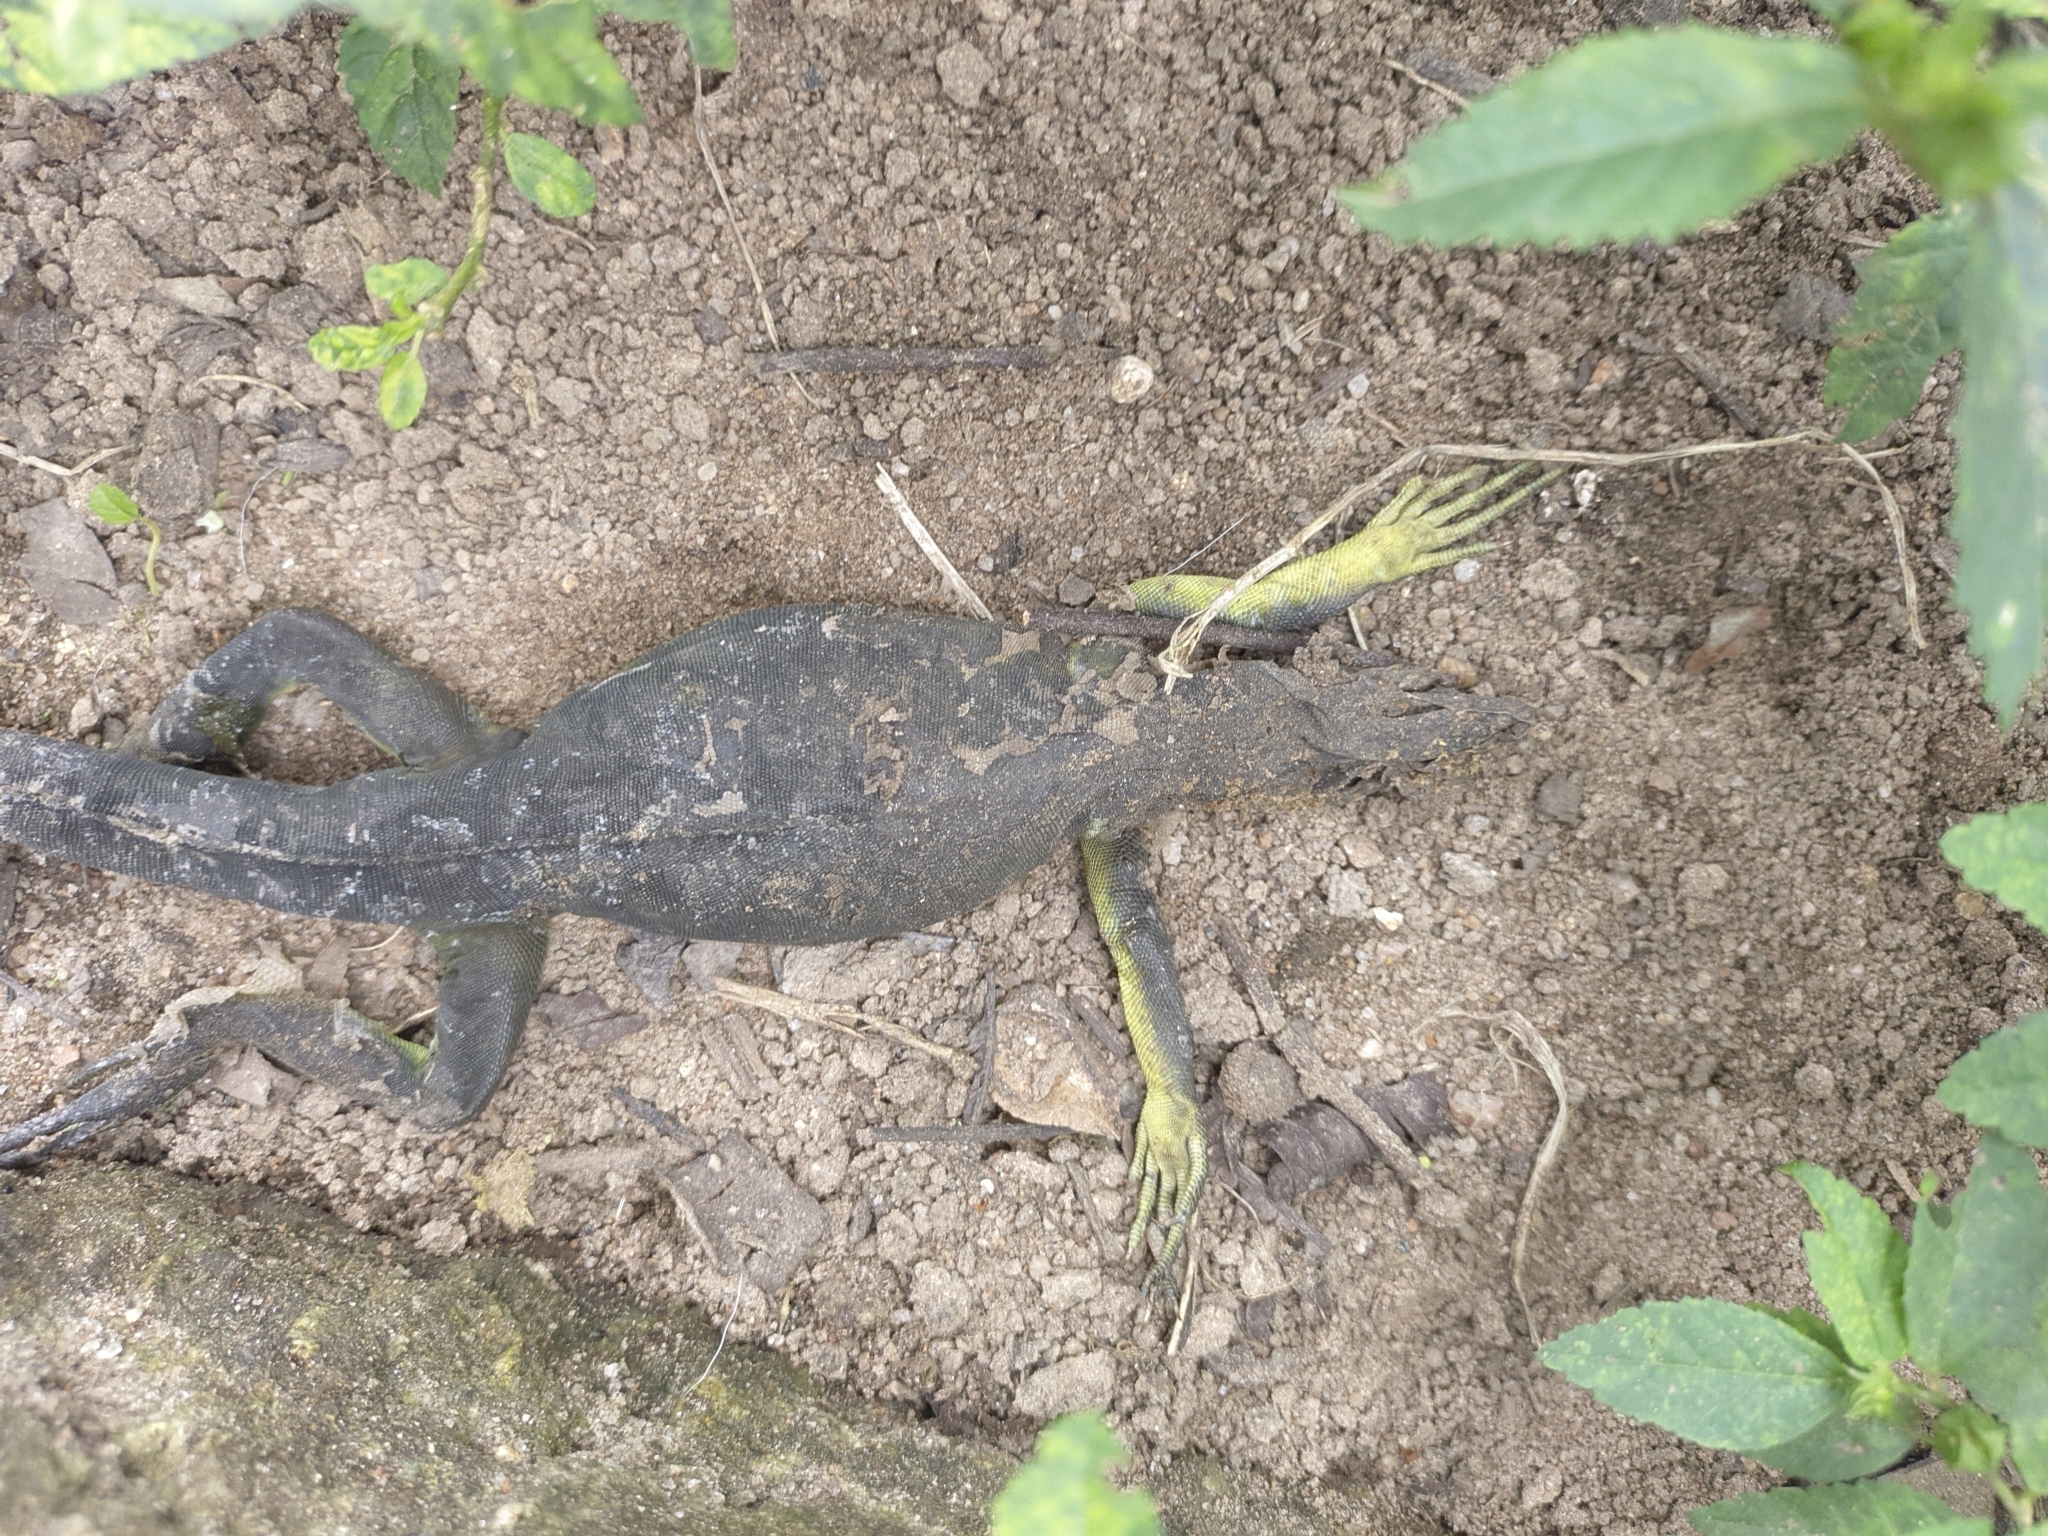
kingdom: Animalia
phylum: Chordata
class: Squamata
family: Iguanidae
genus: Iguana
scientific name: Iguana iguana
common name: Green iguana
